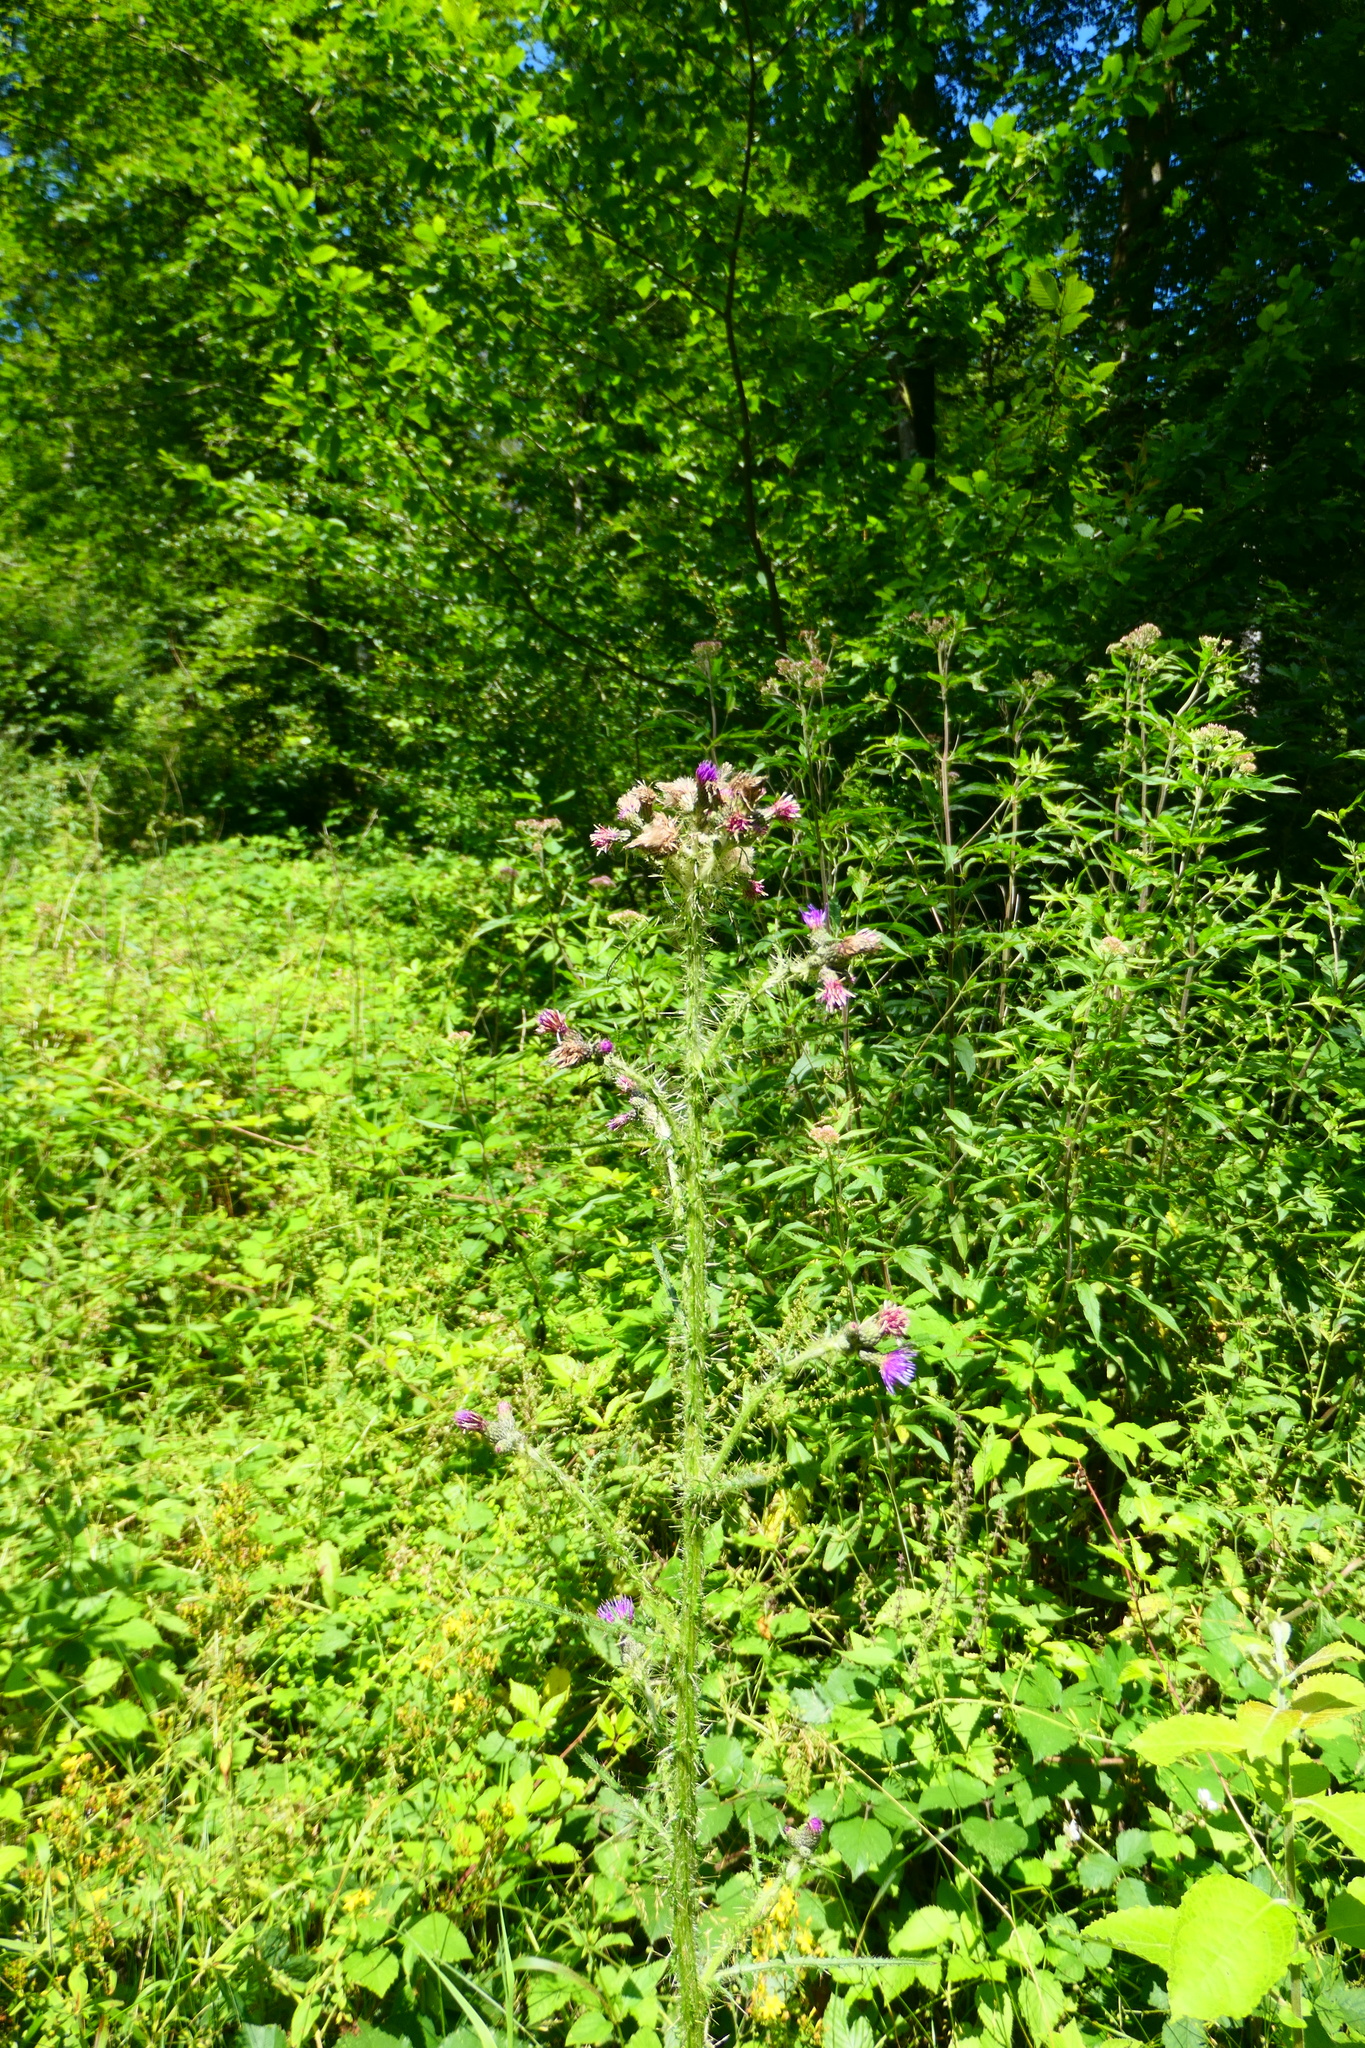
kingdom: Plantae
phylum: Tracheophyta
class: Magnoliopsida
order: Asterales
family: Asteraceae
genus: Cirsium
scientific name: Cirsium palustre
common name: Marsh thistle
